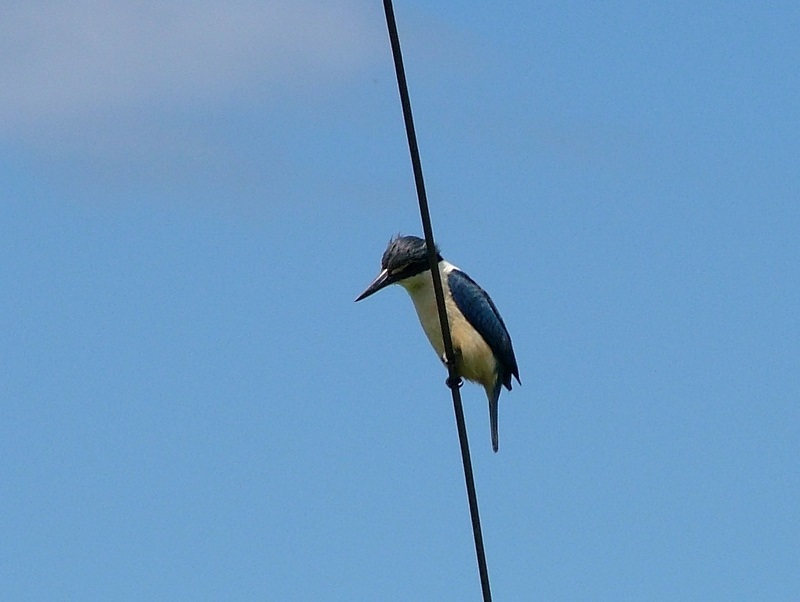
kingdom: Animalia
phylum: Chordata
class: Aves
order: Coraciiformes
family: Alcedinidae
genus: Todiramphus
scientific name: Todiramphus sanctus
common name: Sacred kingfisher
